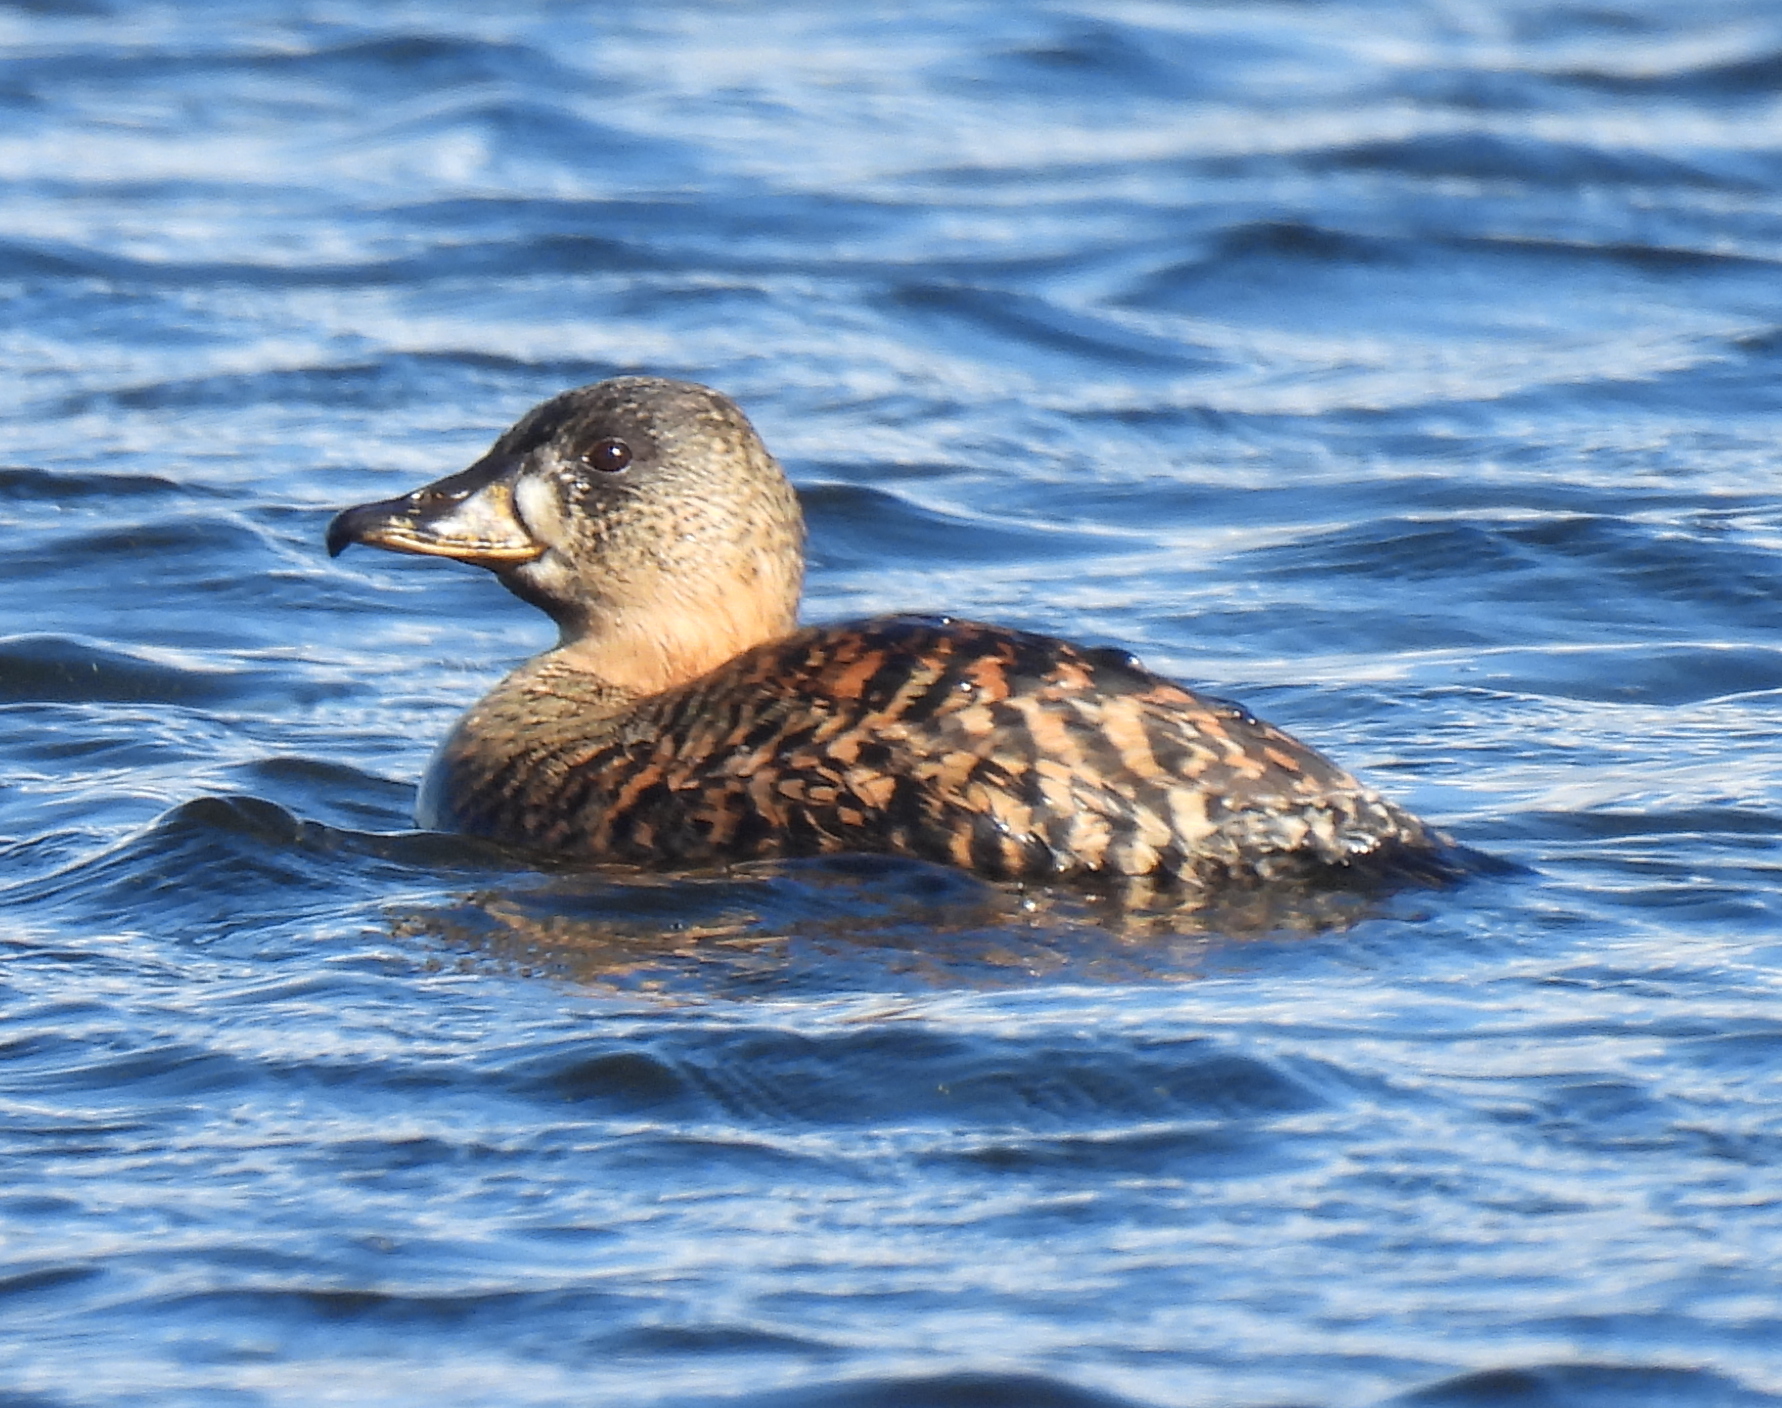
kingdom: Animalia
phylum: Chordata
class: Aves
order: Anseriformes
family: Anatidae
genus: Thalassornis
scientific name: Thalassornis leuconotus
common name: White-backed duck
